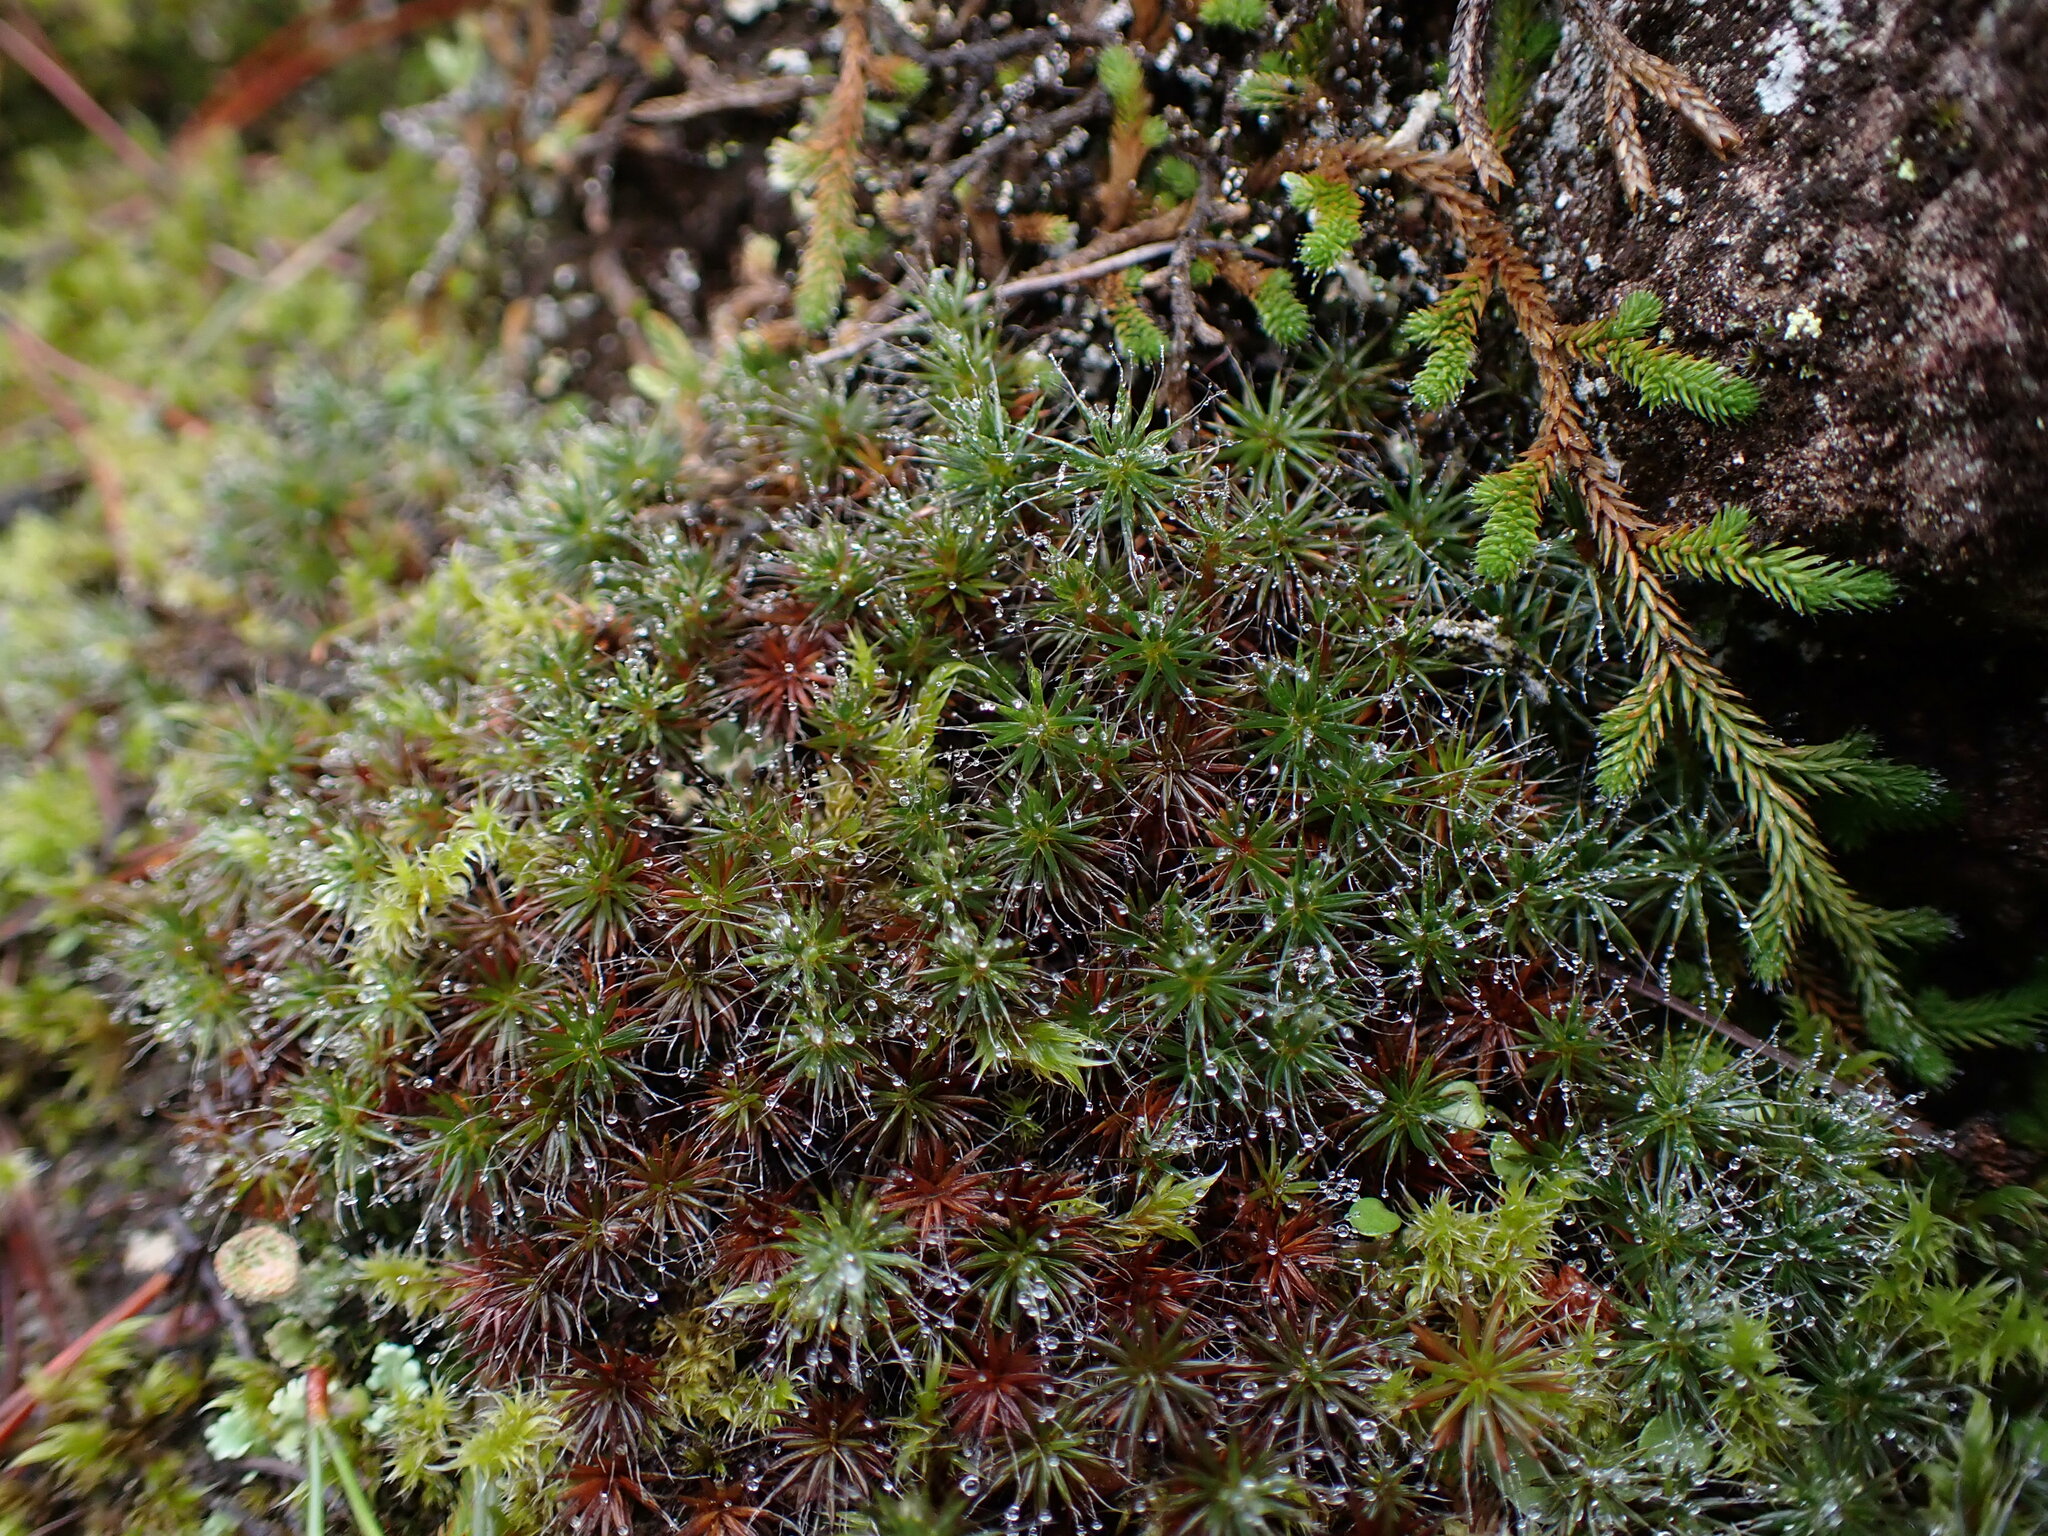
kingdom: Plantae
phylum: Bryophyta
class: Polytrichopsida
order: Polytrichales
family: Polytrichaceae
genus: Polytrichum
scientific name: Polytrichum piliferum
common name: Bristly haircap
